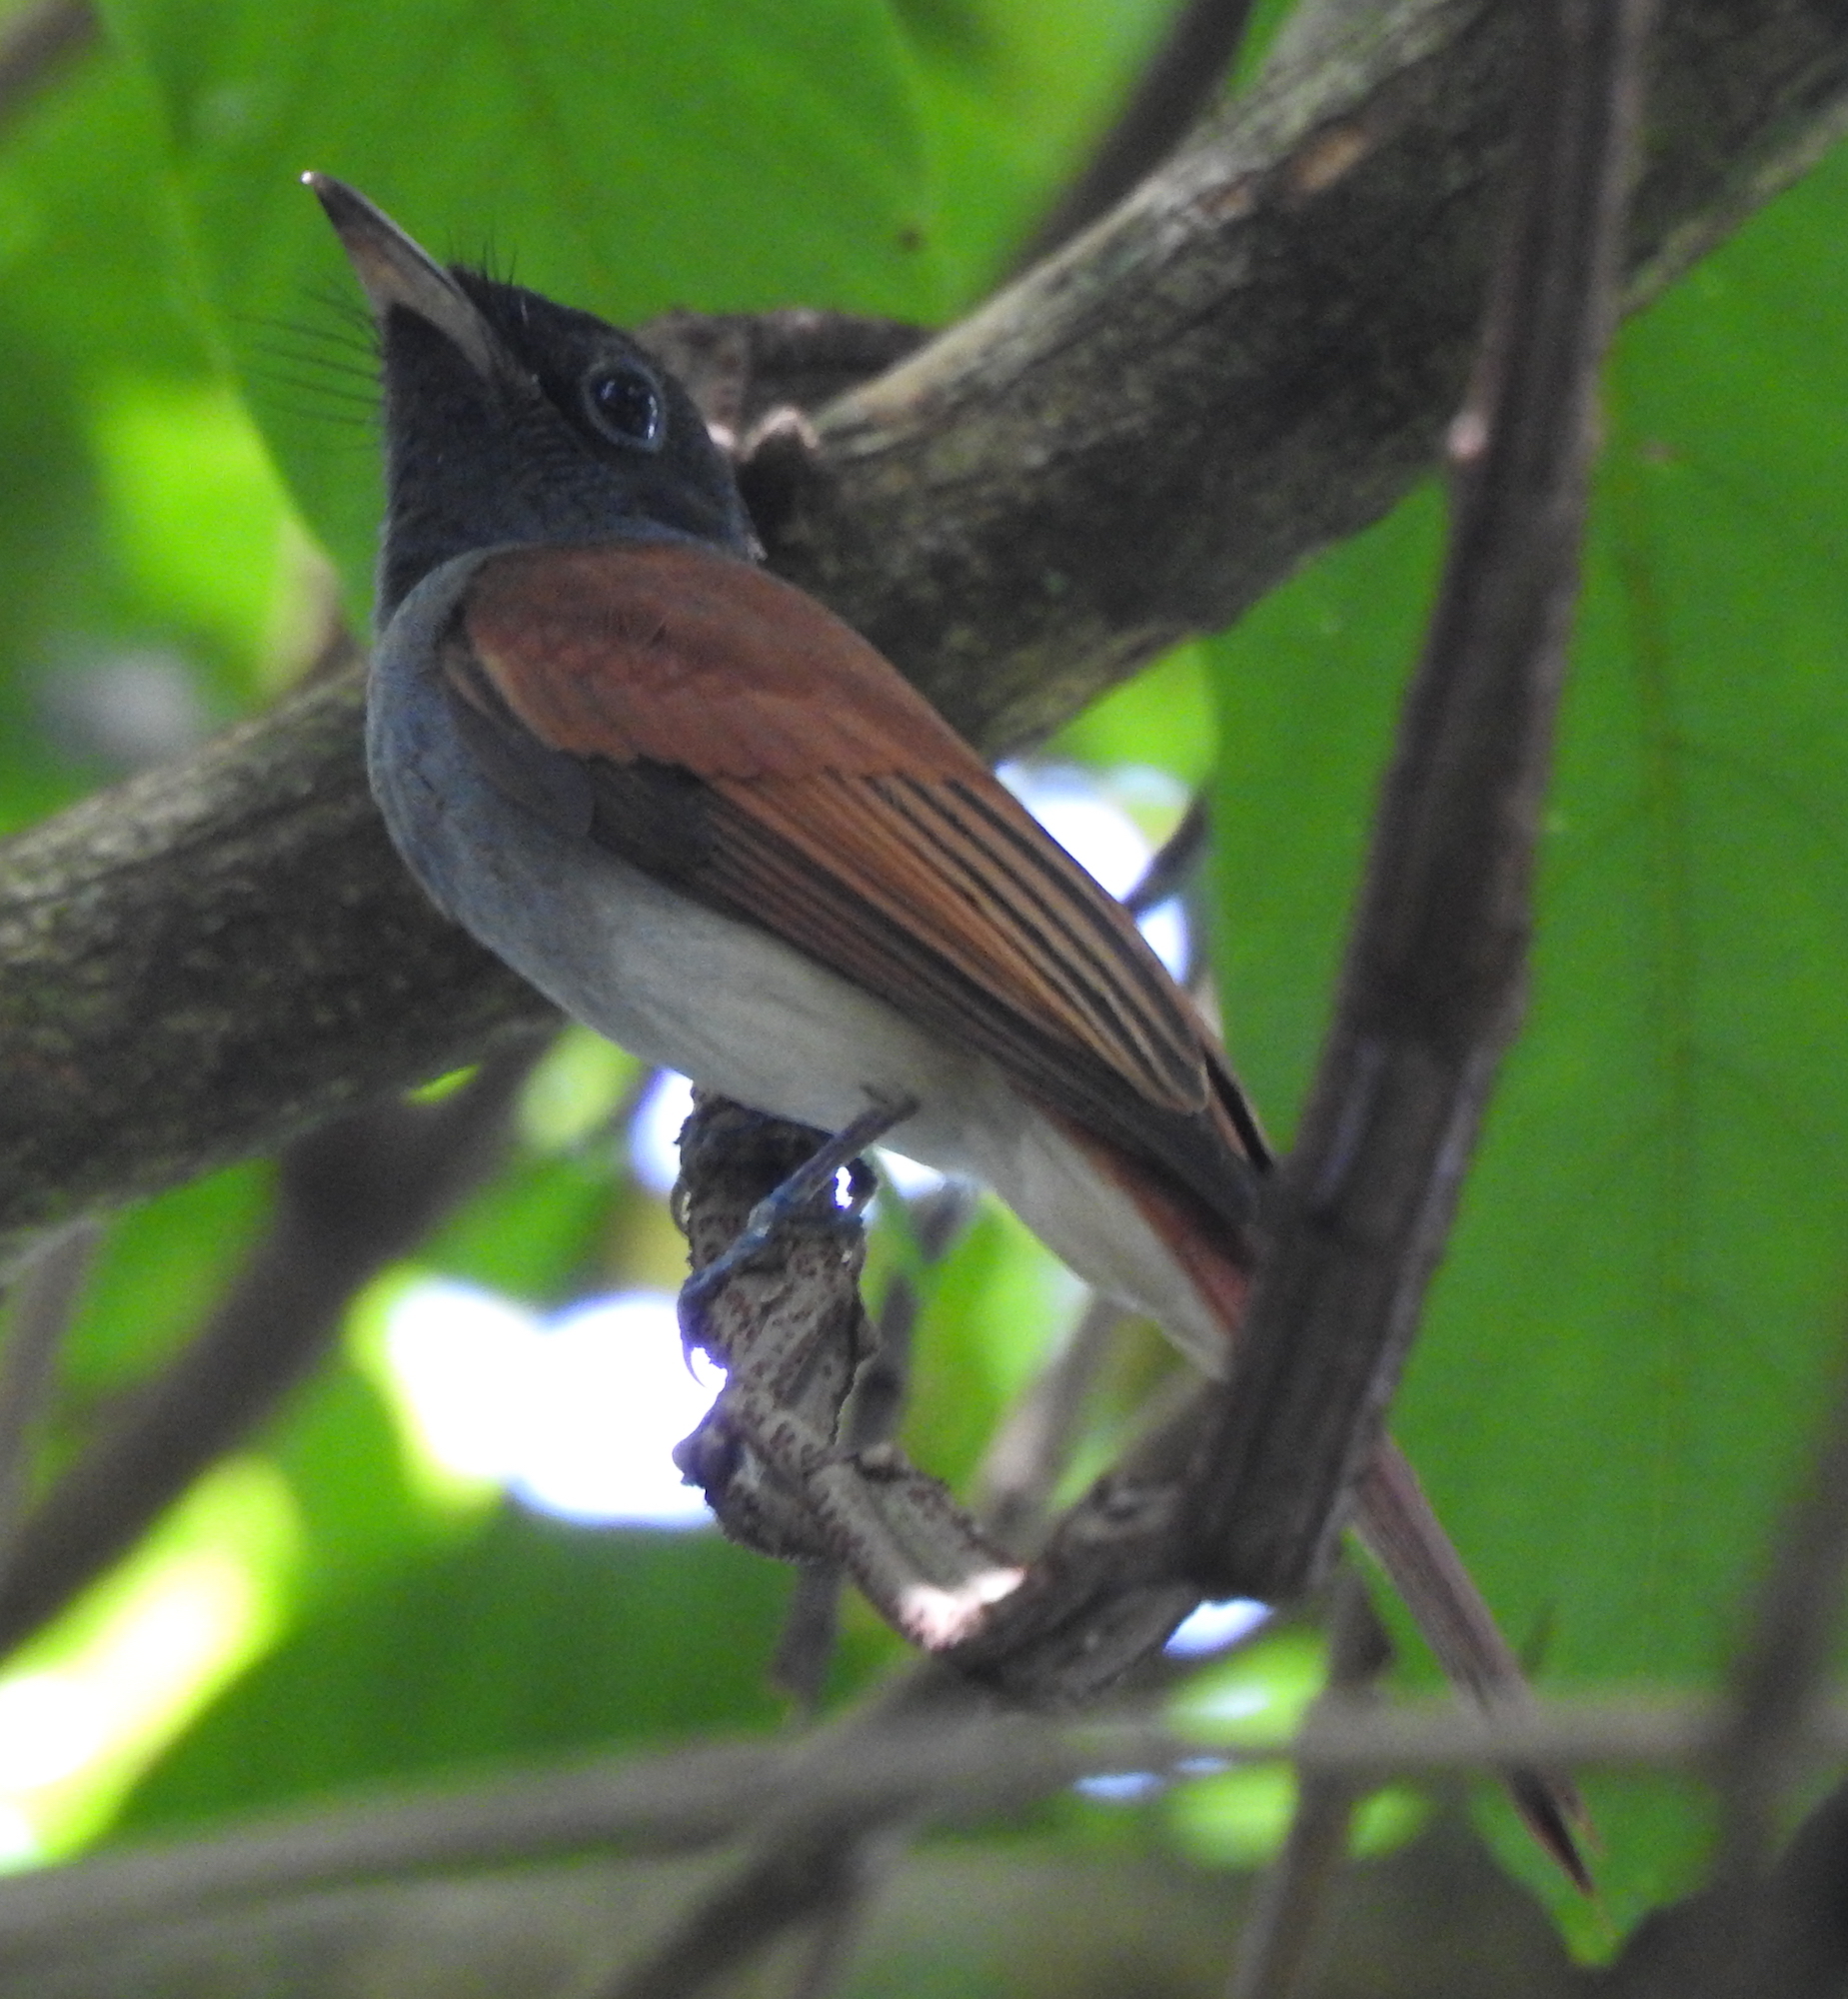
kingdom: Animalia
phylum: Chordata
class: Aves
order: Passeriformes
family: Monarchidae
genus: Terpsiphone
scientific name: Terpsiphone paradisi
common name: Indian paradise flycatcher
